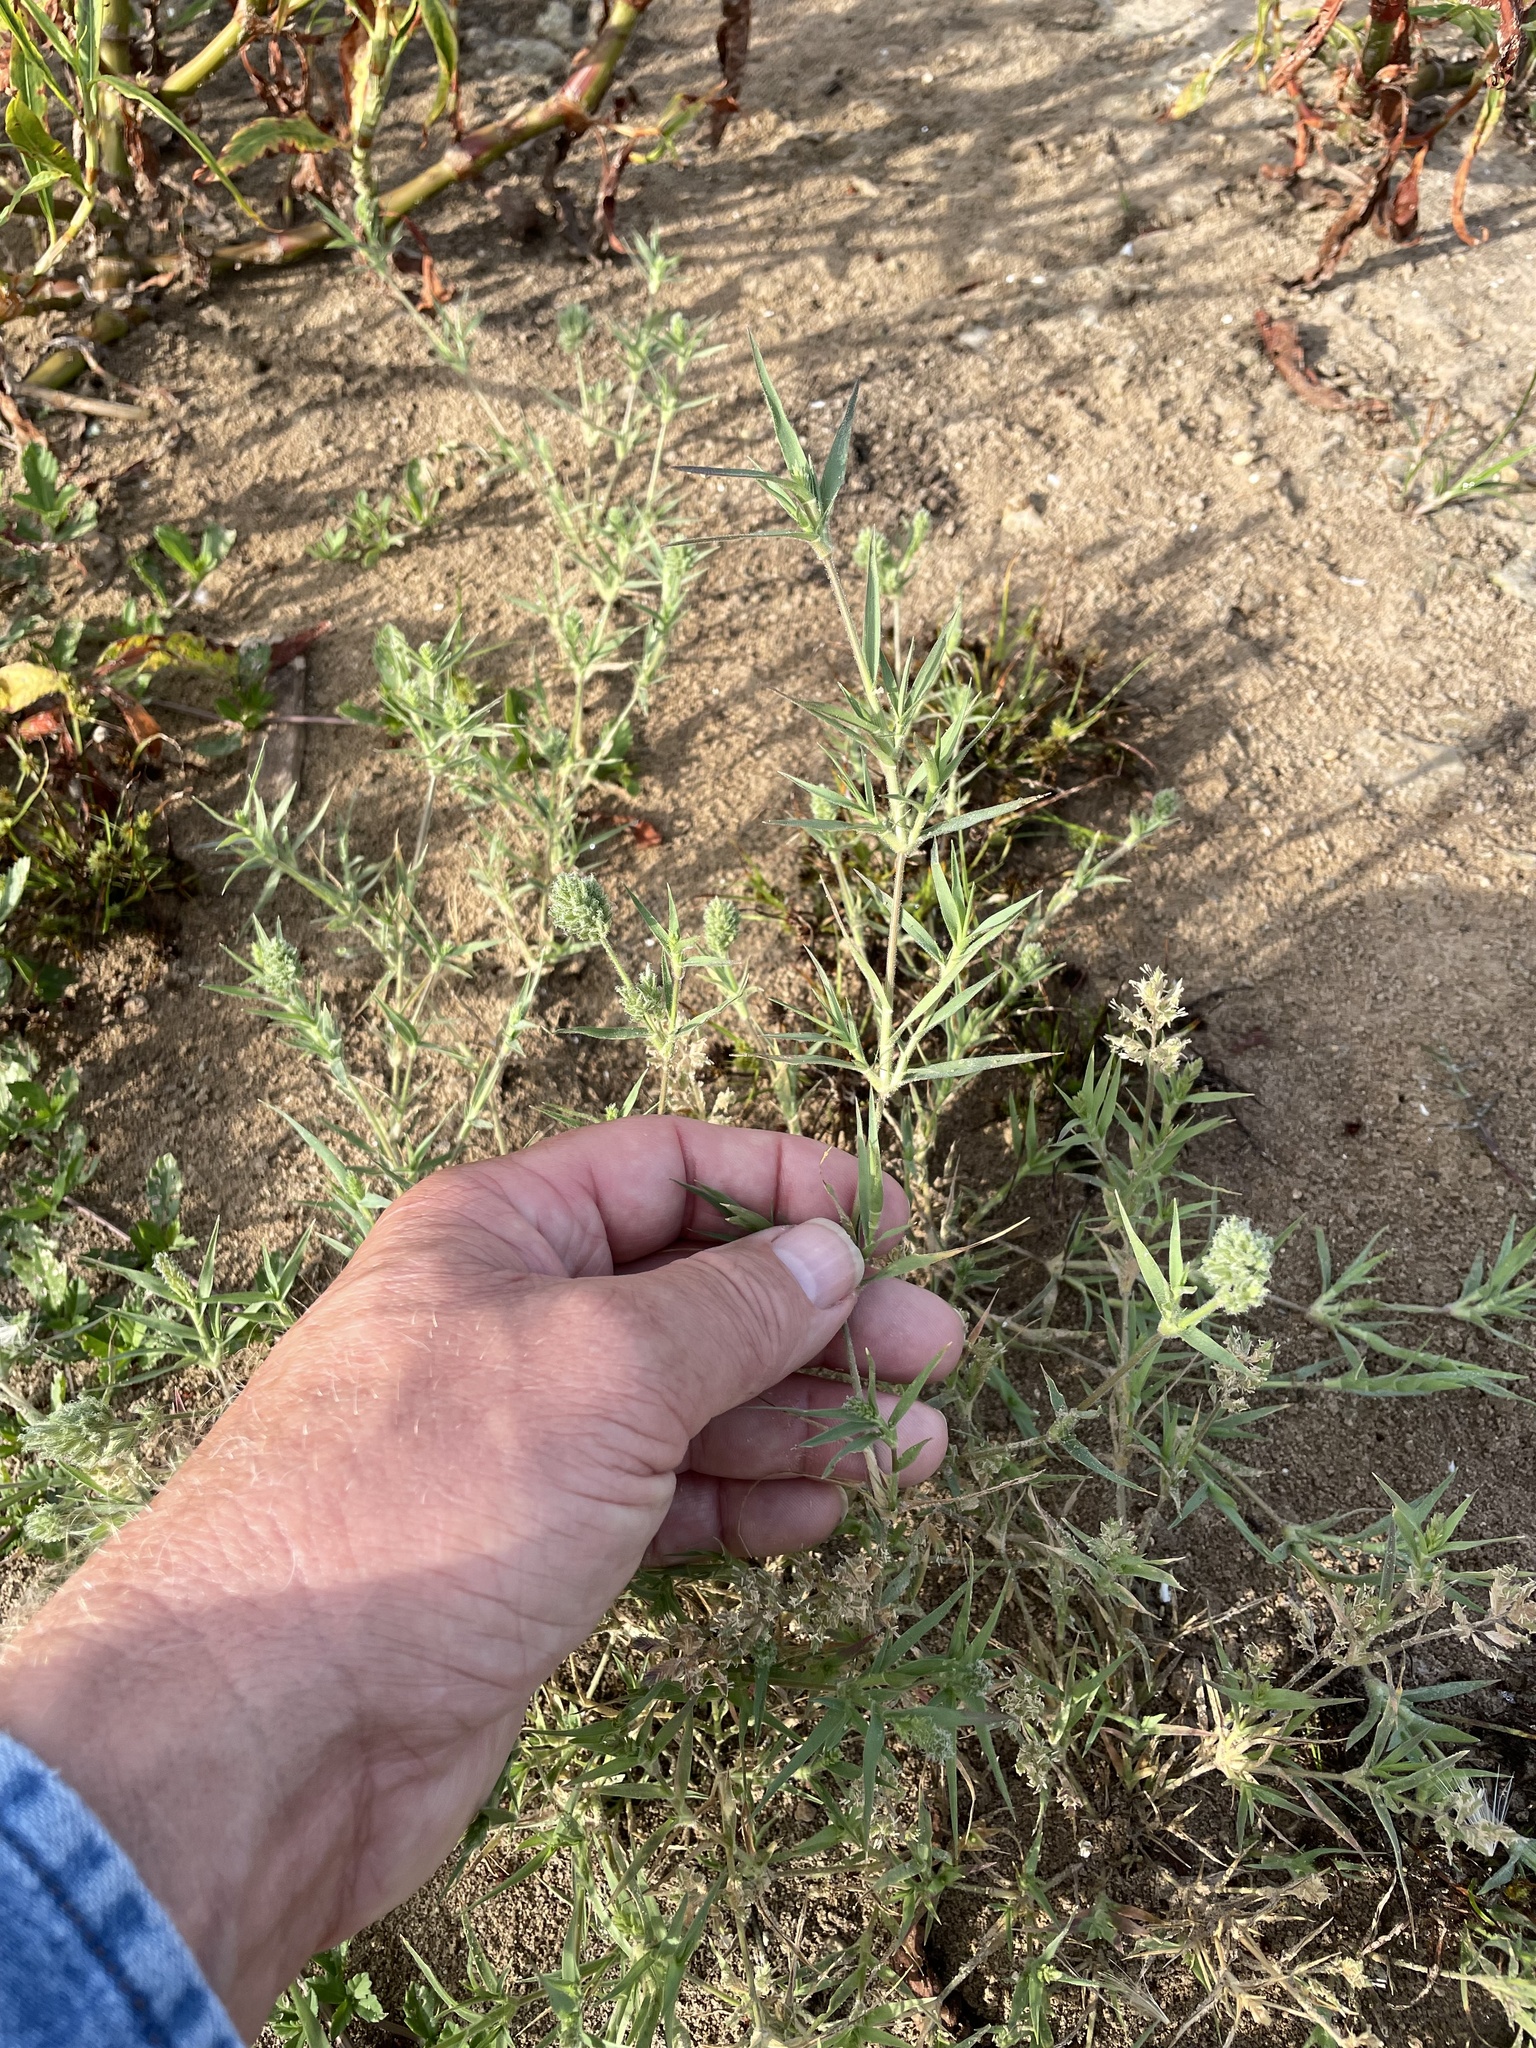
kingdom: Plantae
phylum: Tracheophyta
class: Liliopsida
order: Poales
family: Poaceae
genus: Eragrostis
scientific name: Eragrostis reptans
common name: Creeping love grass
